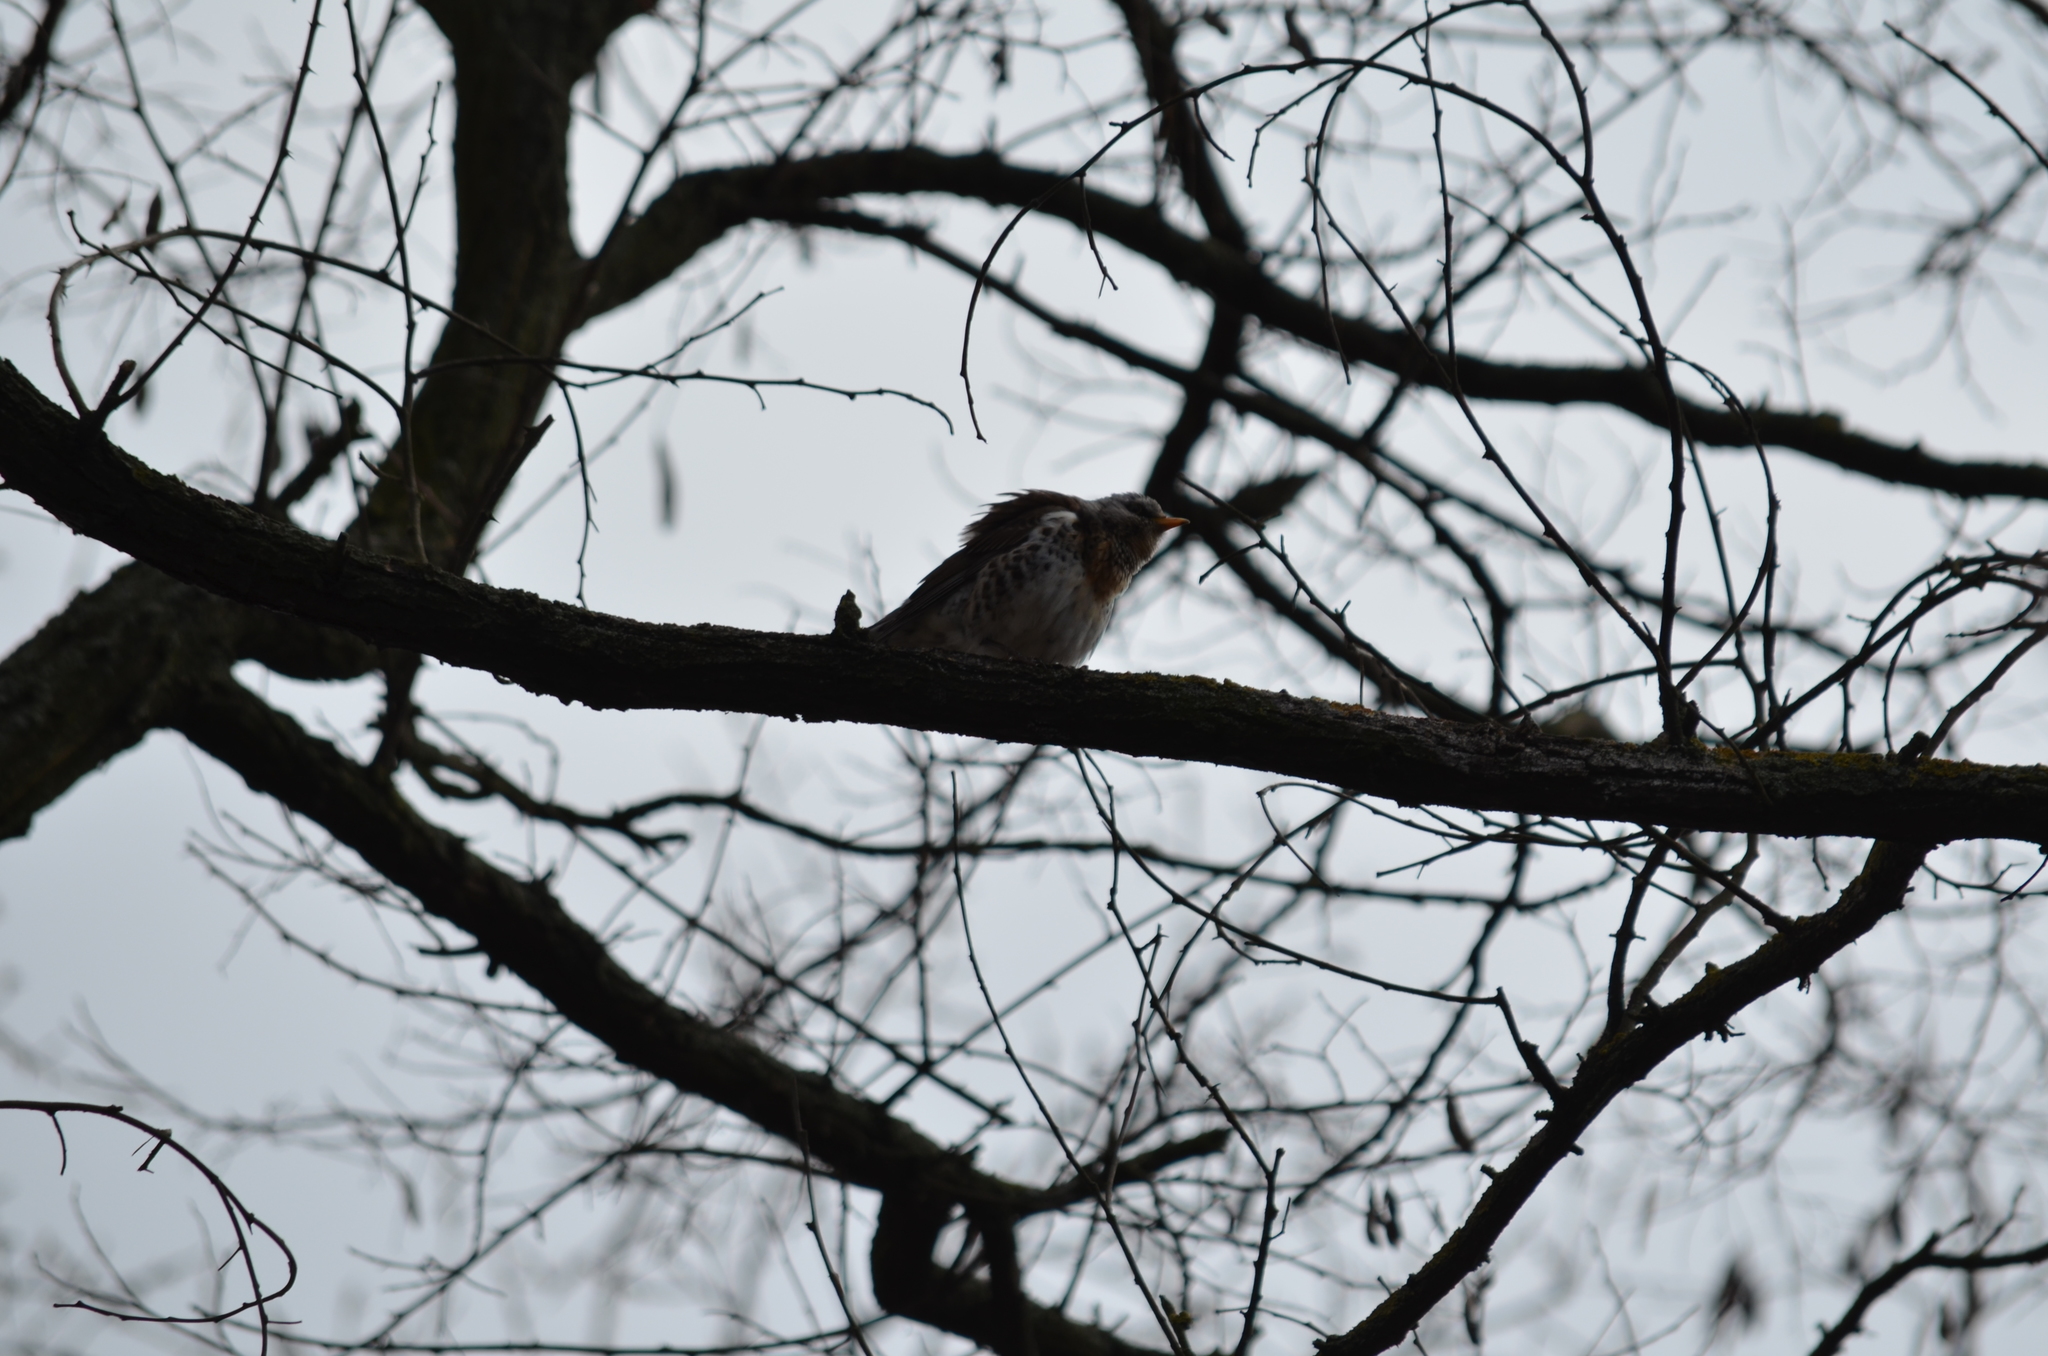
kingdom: Animalia
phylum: Chordata
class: Aves
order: Passeriformes
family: Turdidae
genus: Turdus
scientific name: Turdus pilaris
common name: Fieldfare
